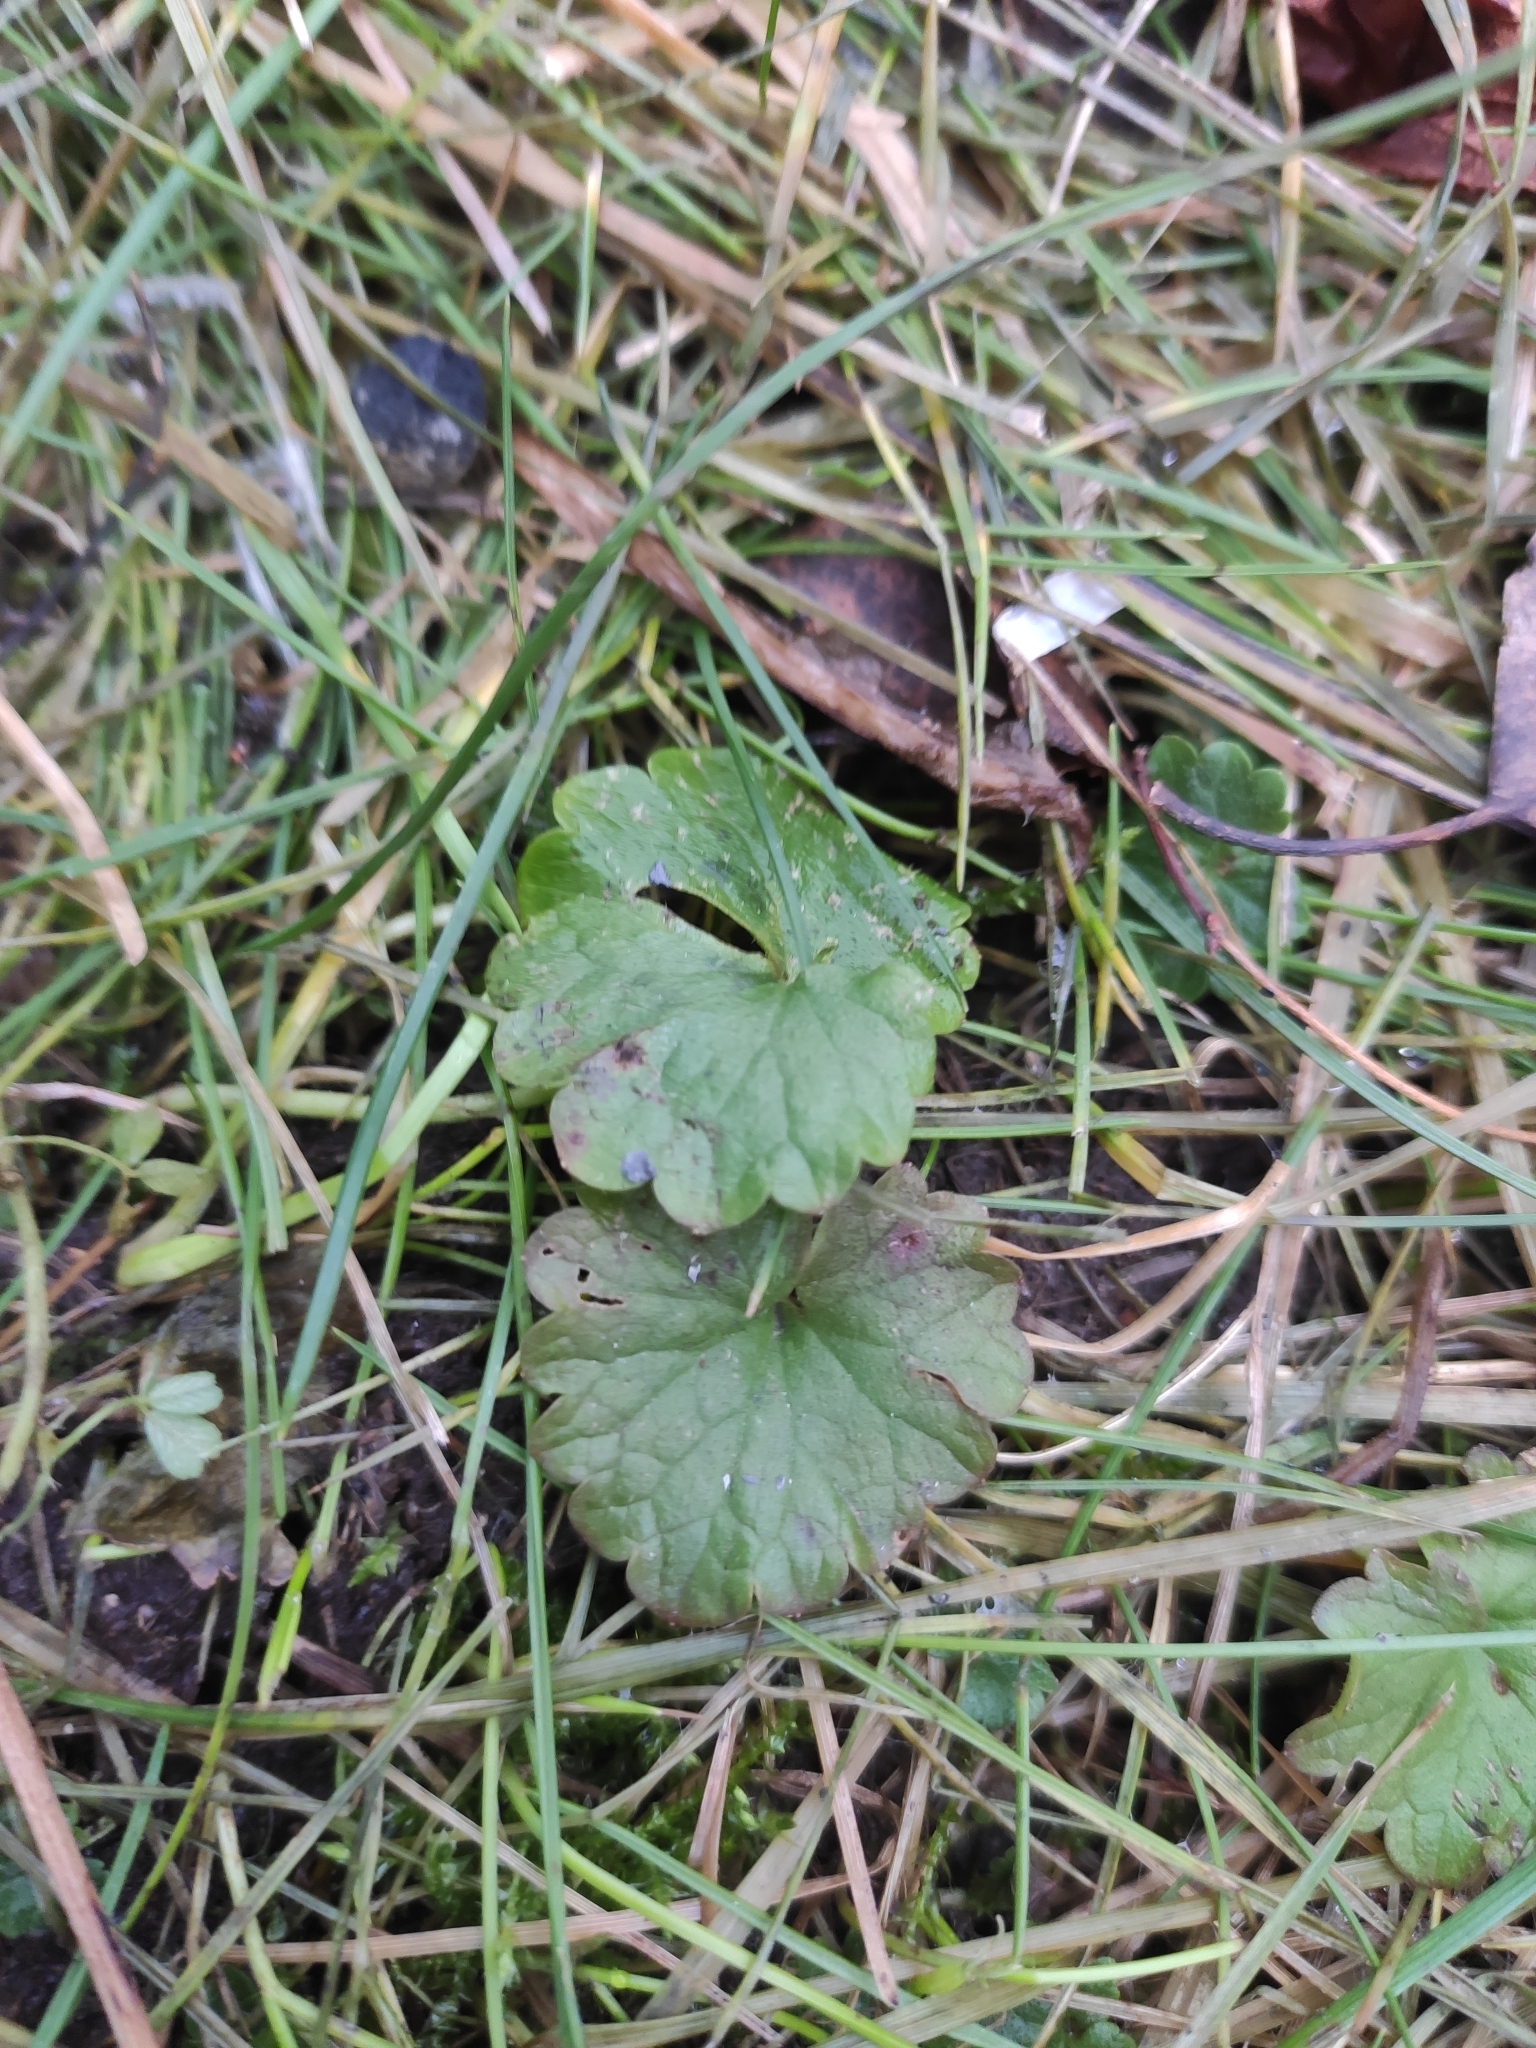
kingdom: Plantae
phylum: Tracheophyta
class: Magnoliopsida
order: Lamiales
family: Lamiaceae
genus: Glechoma
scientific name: Glechoma hederacea
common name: Ground ivy
